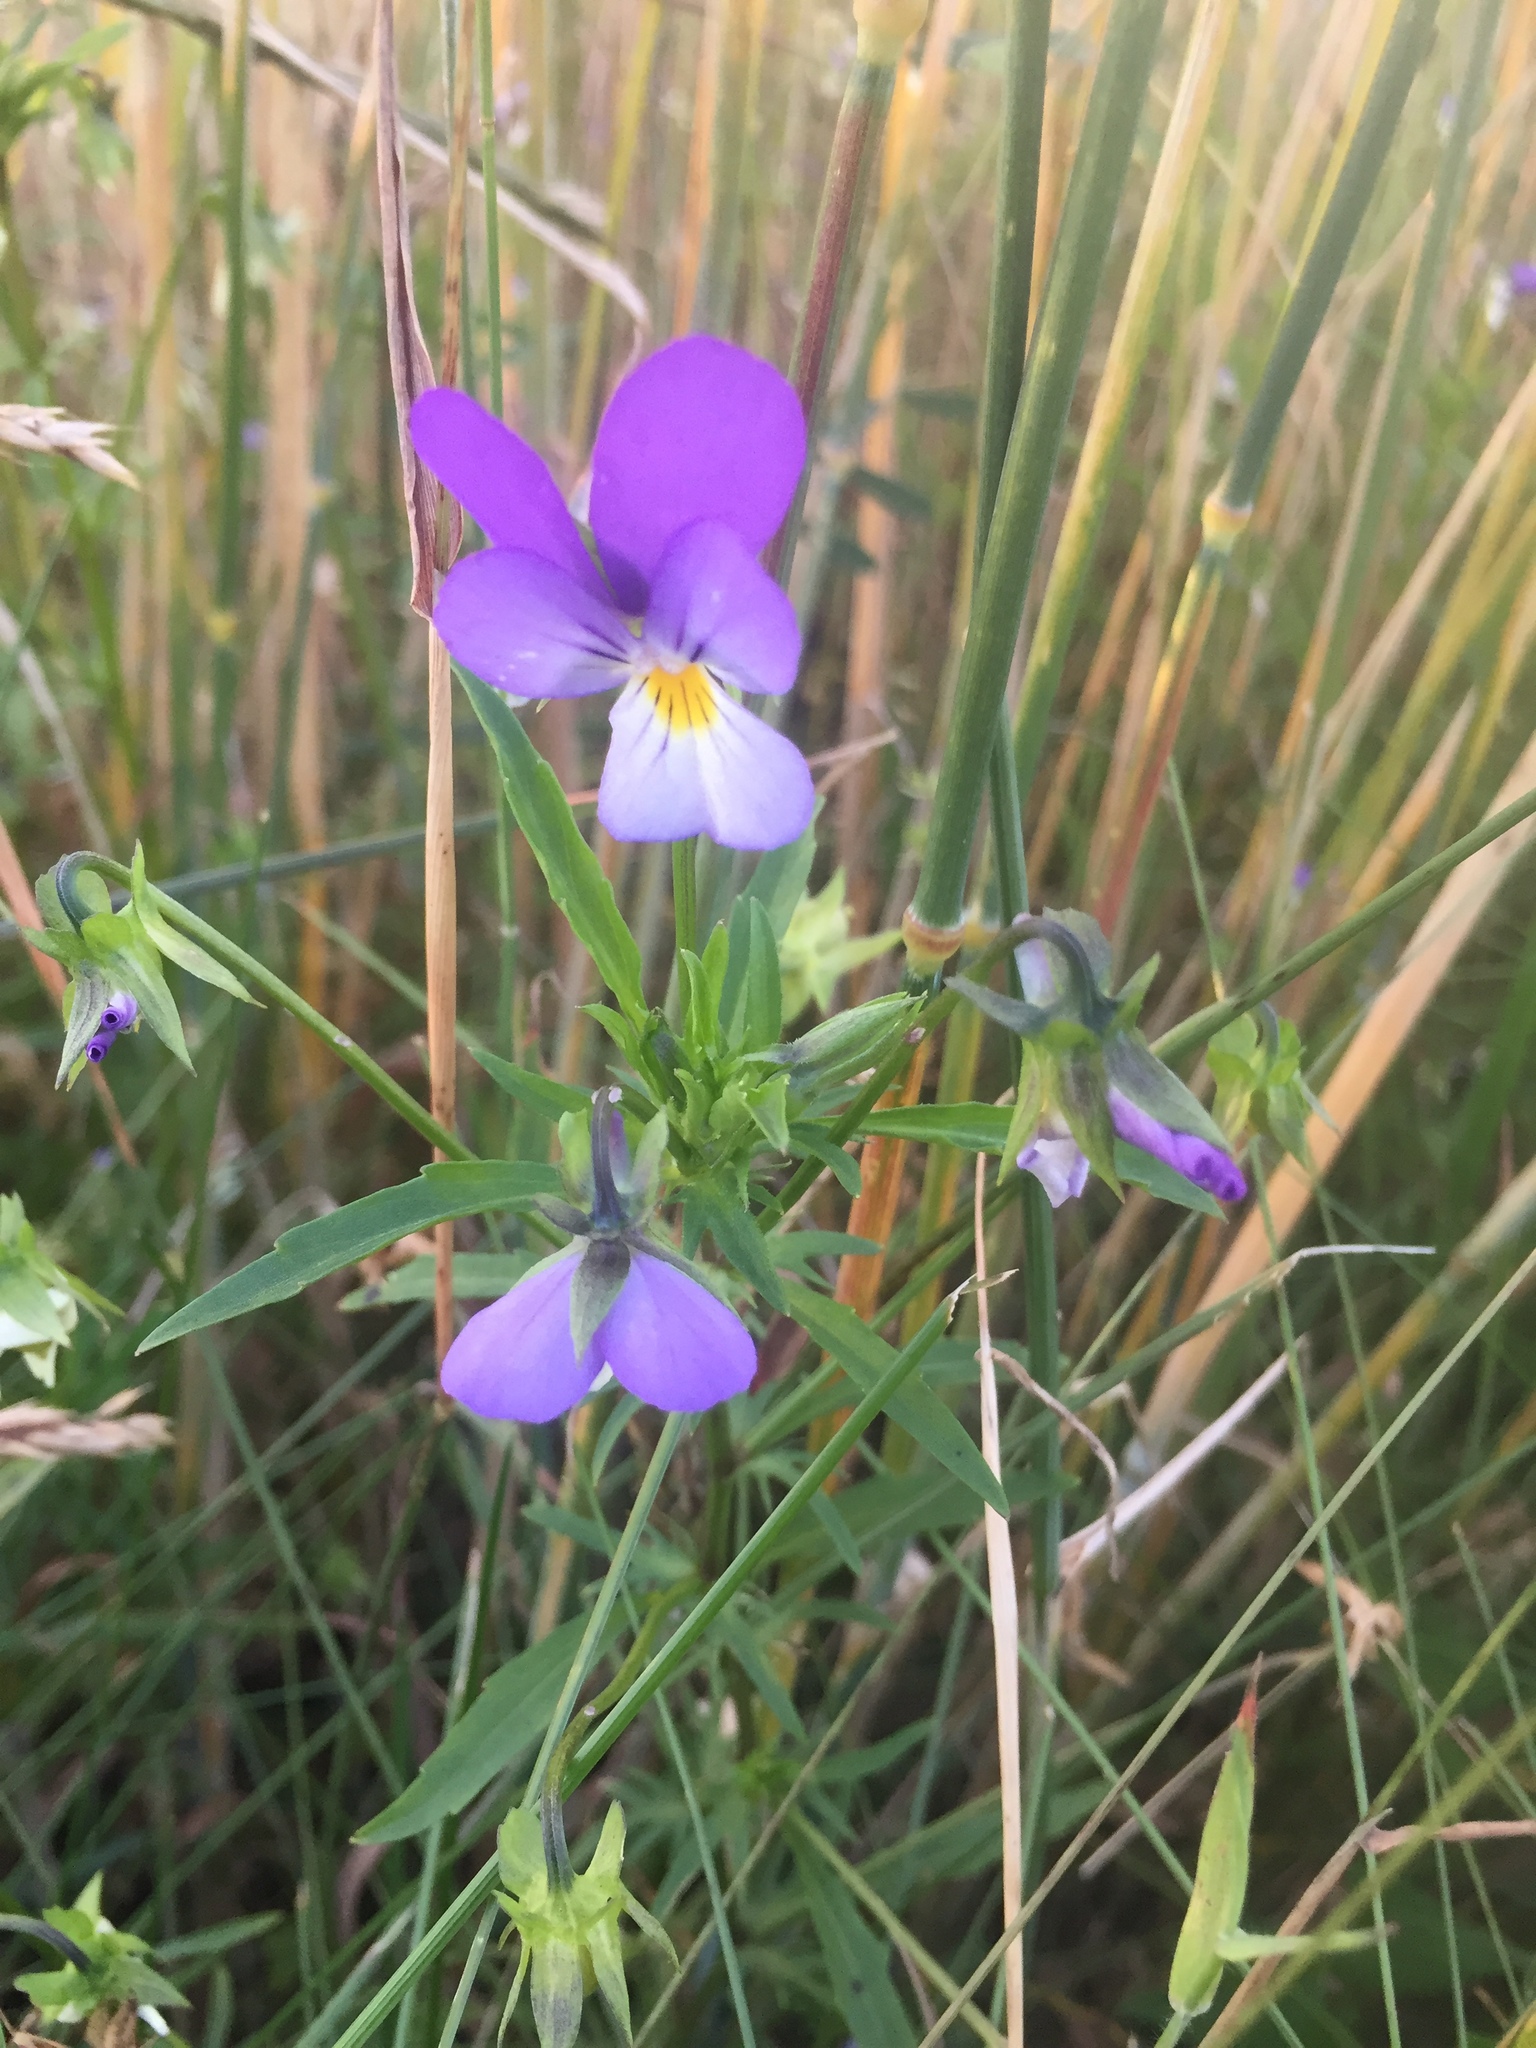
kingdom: Plantae
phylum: Tracheophyta
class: Magnoliopsida
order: Malpighiales
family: Violaceae
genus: Viola
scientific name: Viola tricolor
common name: Pansy
